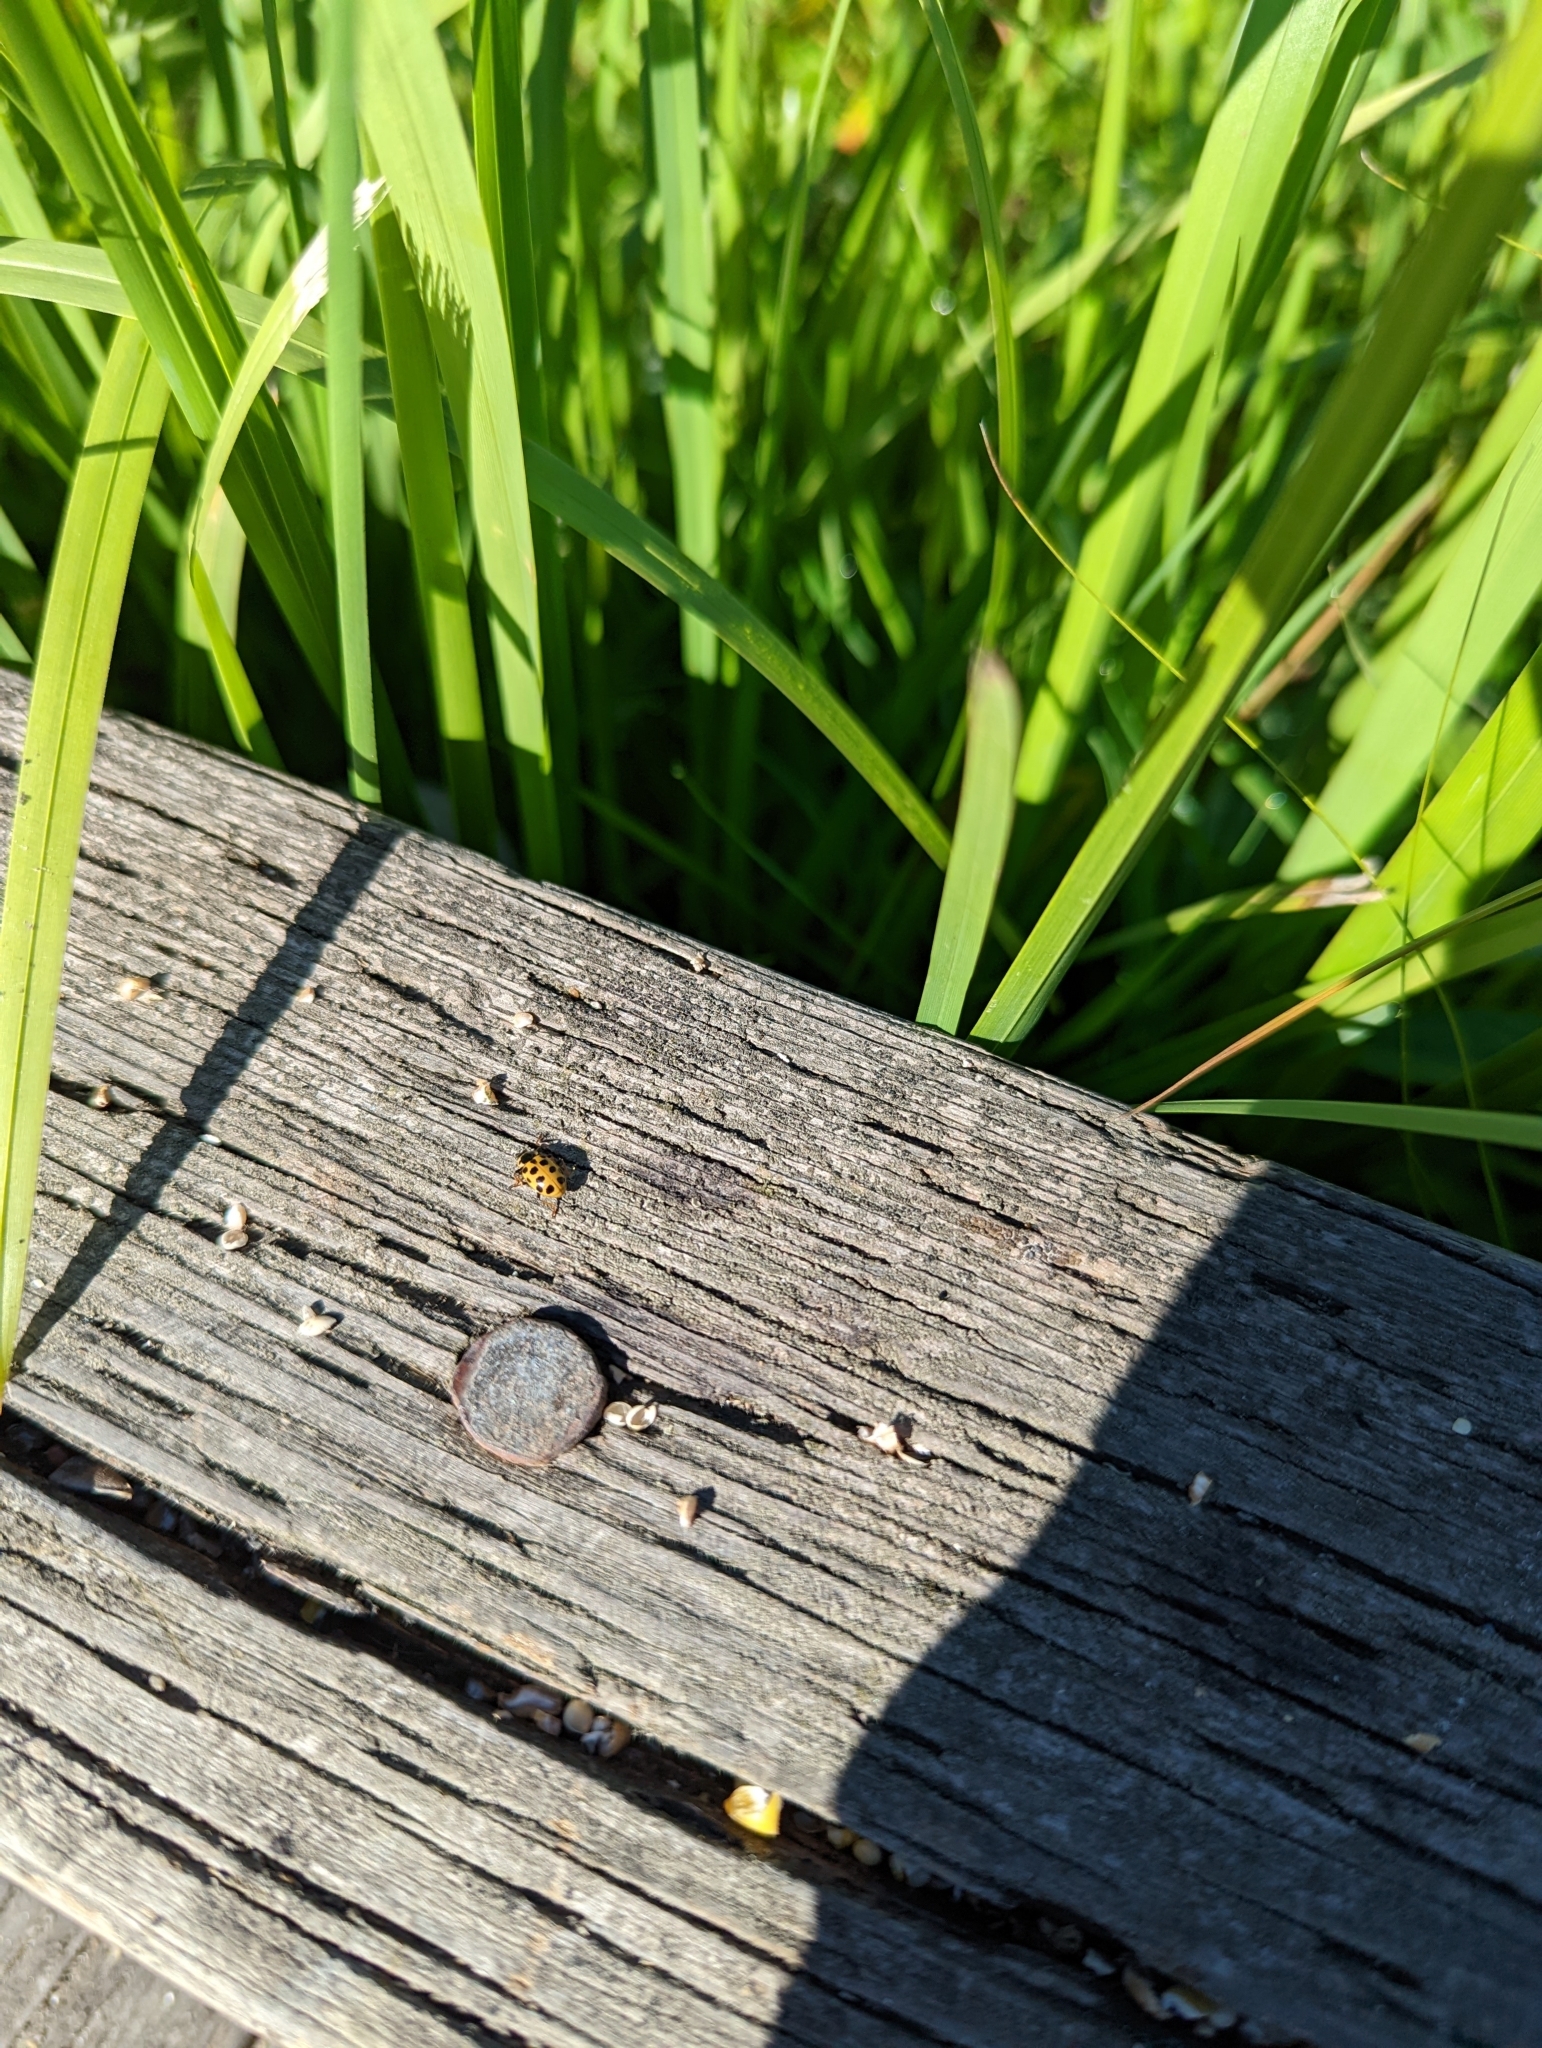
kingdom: Animalia
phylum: Arthropoda
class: Insecta
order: Coleoptera
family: Coccinellidae
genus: Hippodamia
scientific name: Hippodamia tredecimpunctata
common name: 13-spot ladybird
